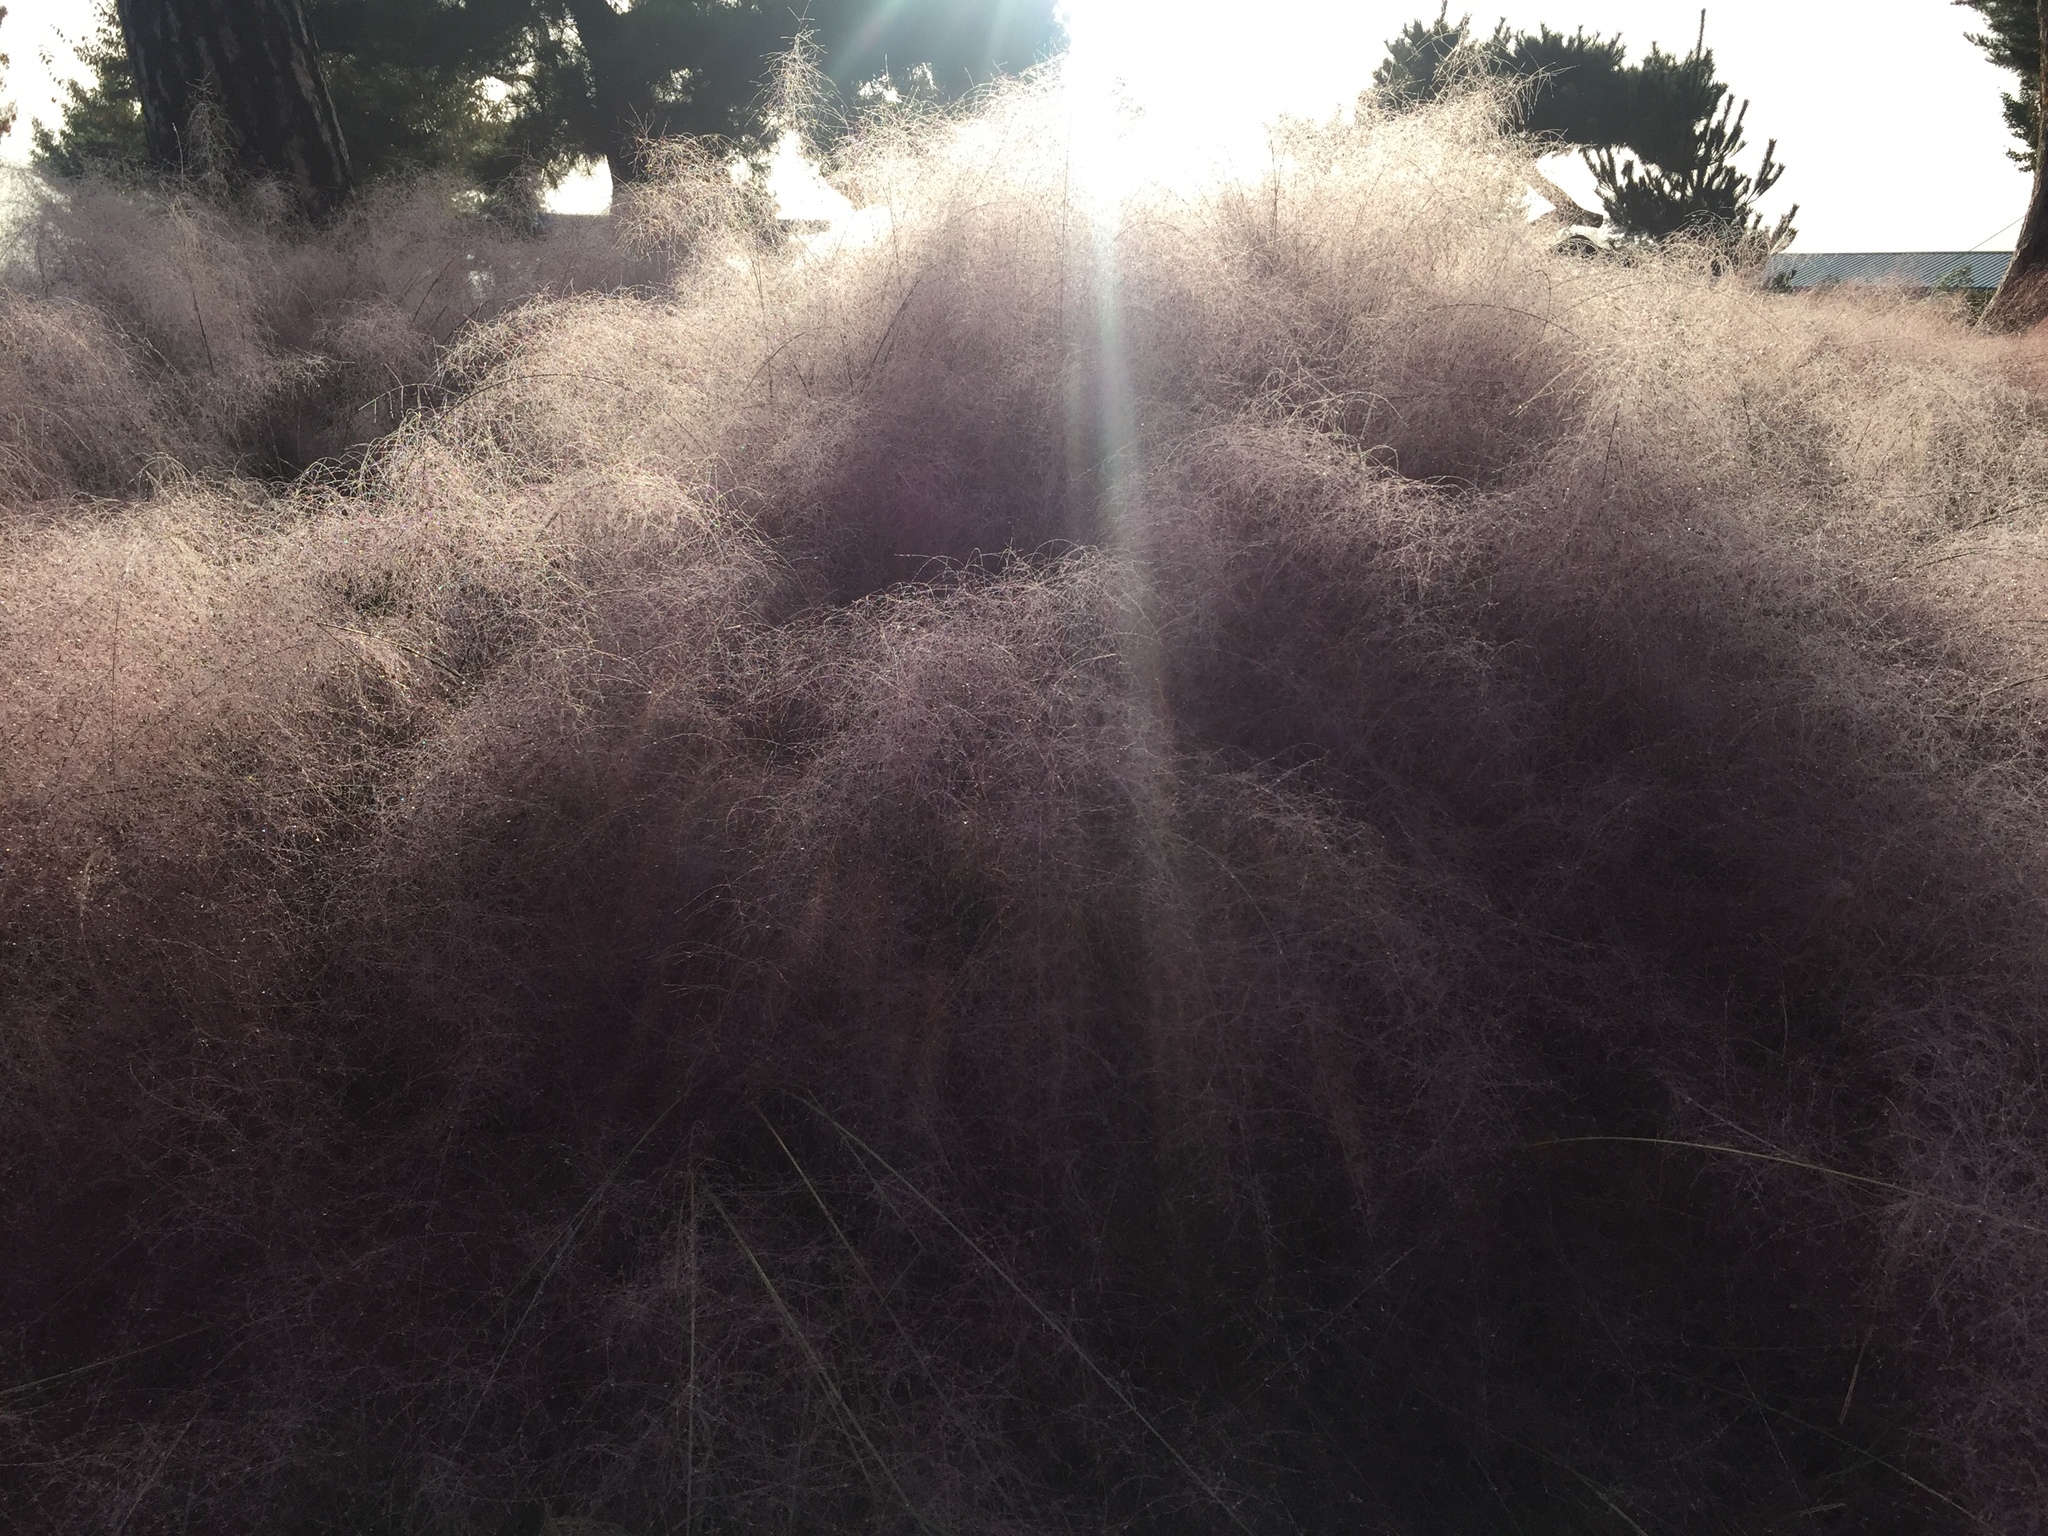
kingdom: Plantae
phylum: Tracheophyta
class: Liliopsida
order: Poales
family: Poaceae
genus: Muhlenbergia
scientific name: Muhlenbergia capillaris
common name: Purple grass
